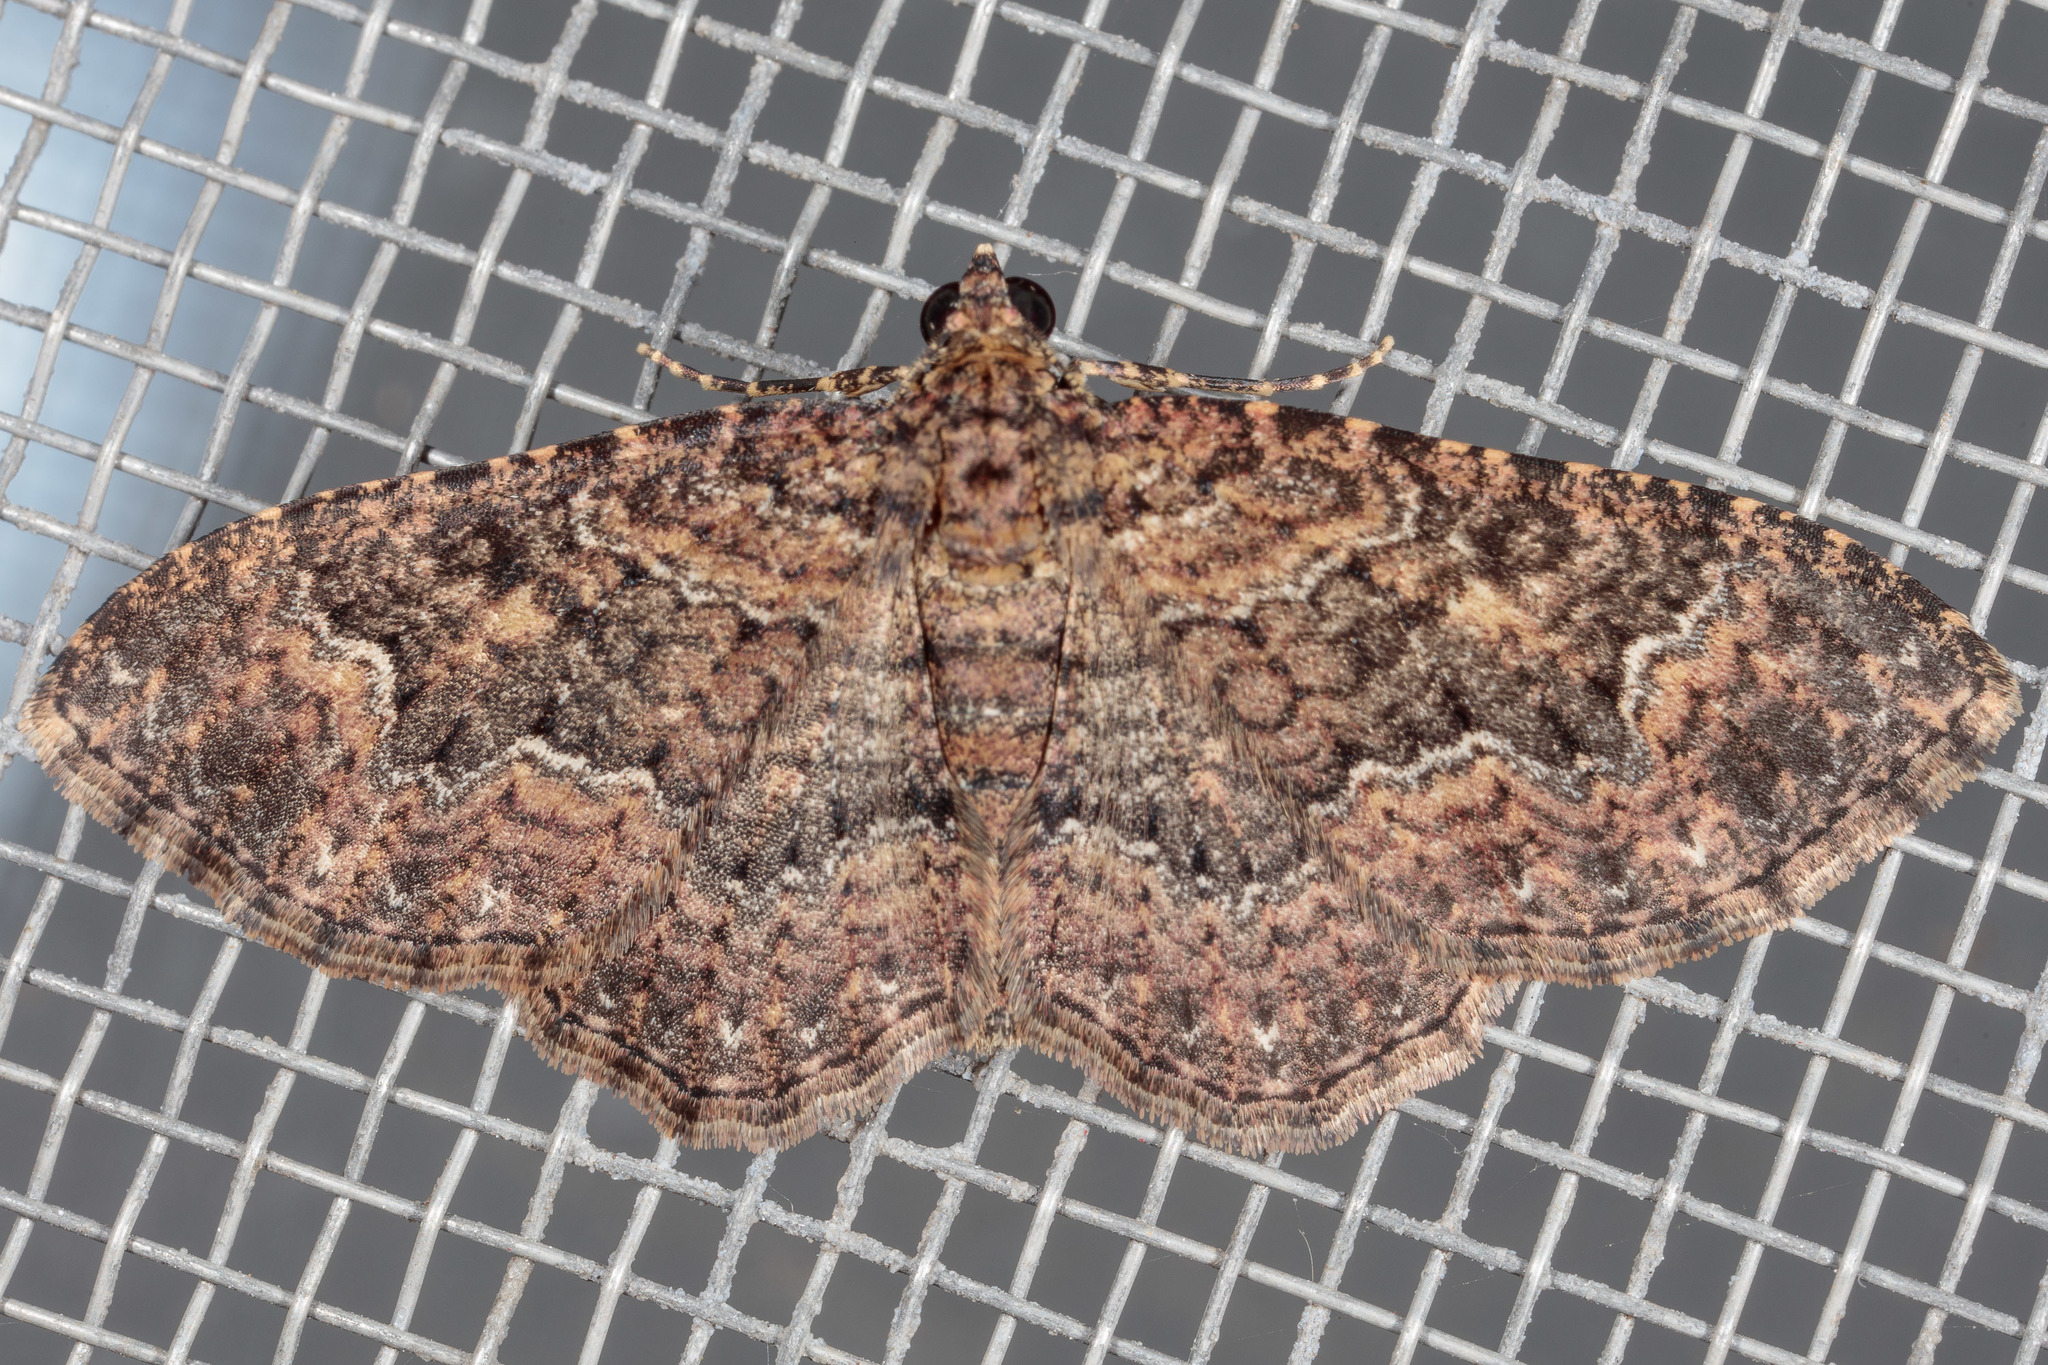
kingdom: Animalia
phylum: Arthropoda
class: Insecta
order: Lepidoptera
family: Geometridae
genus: Disclisioprocta
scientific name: Disclisioprocta stellata
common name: Somber carpet
